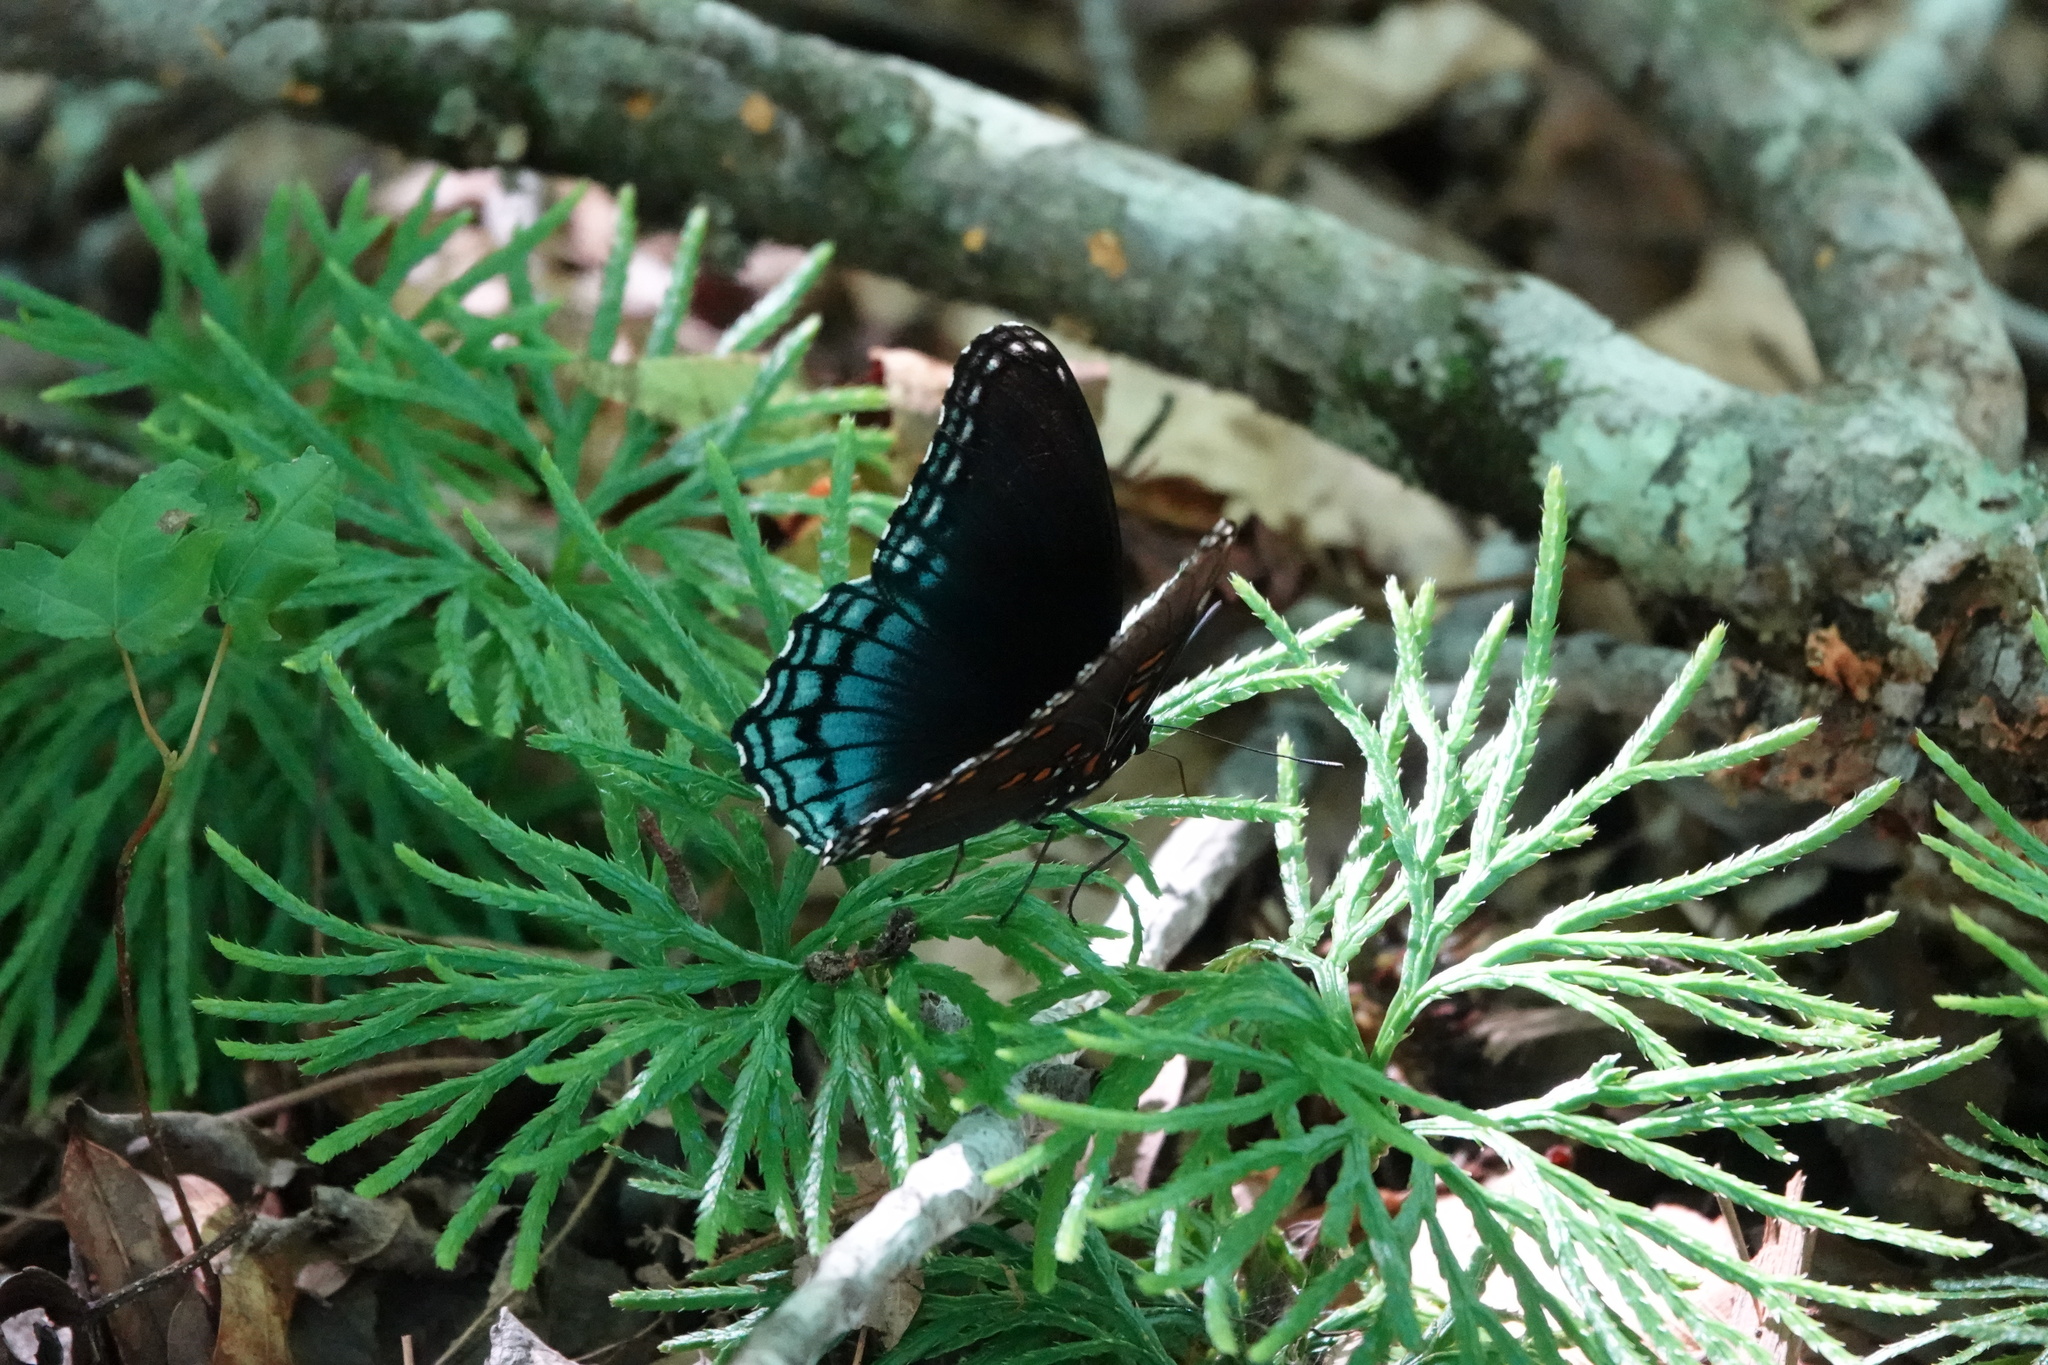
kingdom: Animalia
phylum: Arthropoda
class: Insecta
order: Lepidoptera
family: Nymphalidae
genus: Limenitis
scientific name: Limenitis arthemis
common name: Red-spotted admiral
